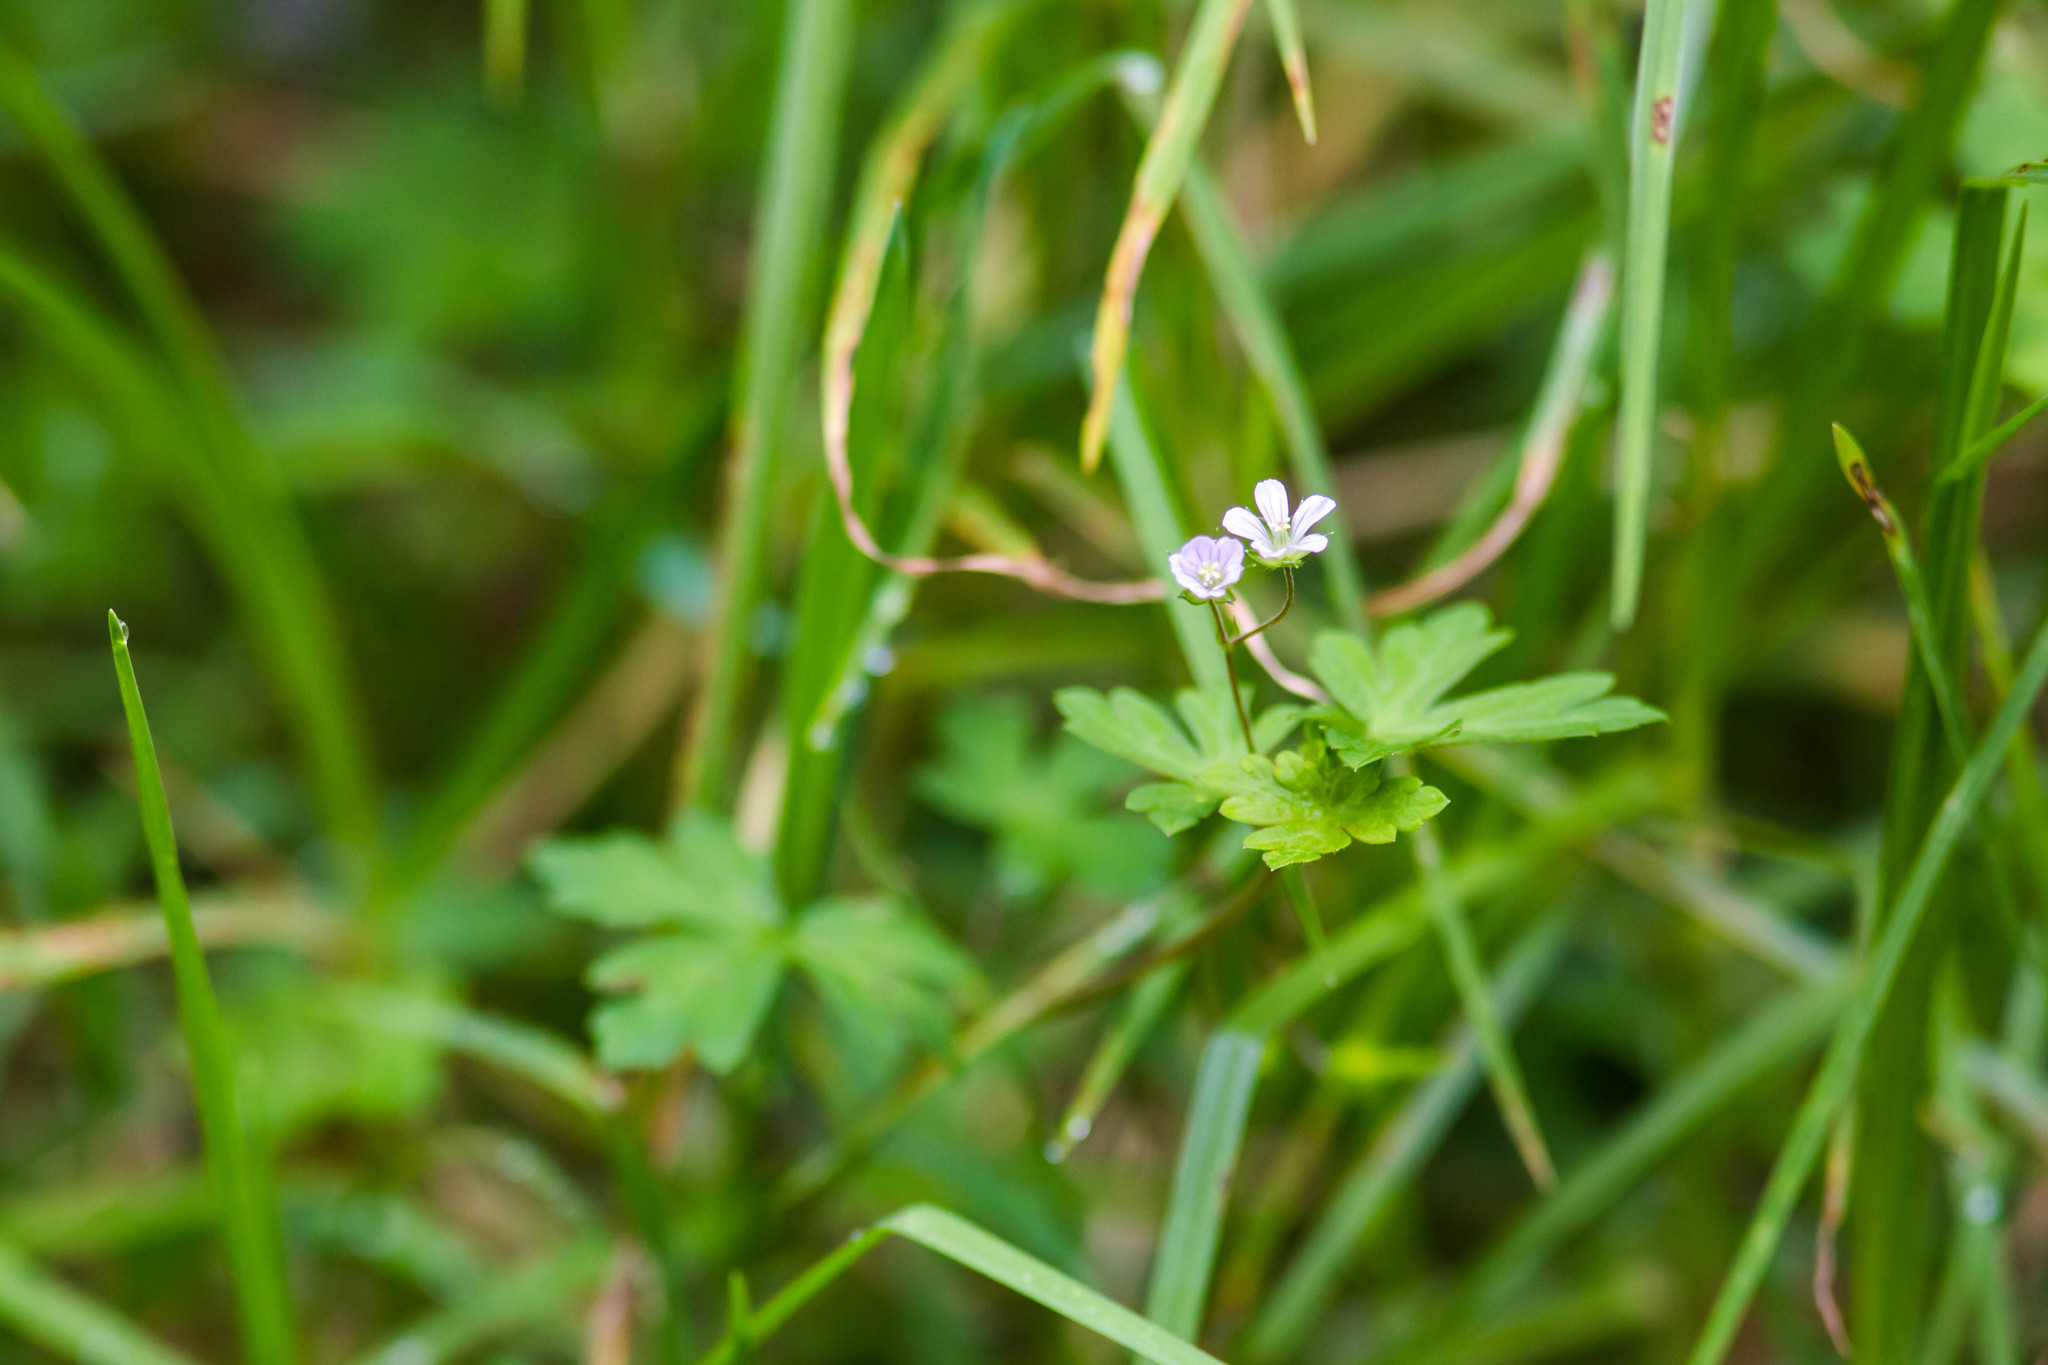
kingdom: Plantae
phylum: Tracheophyta
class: Magnoliopsida
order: Geraniales
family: Geraniaceae
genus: Geranium
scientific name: Geranium homeanum
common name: Australasian geranium
